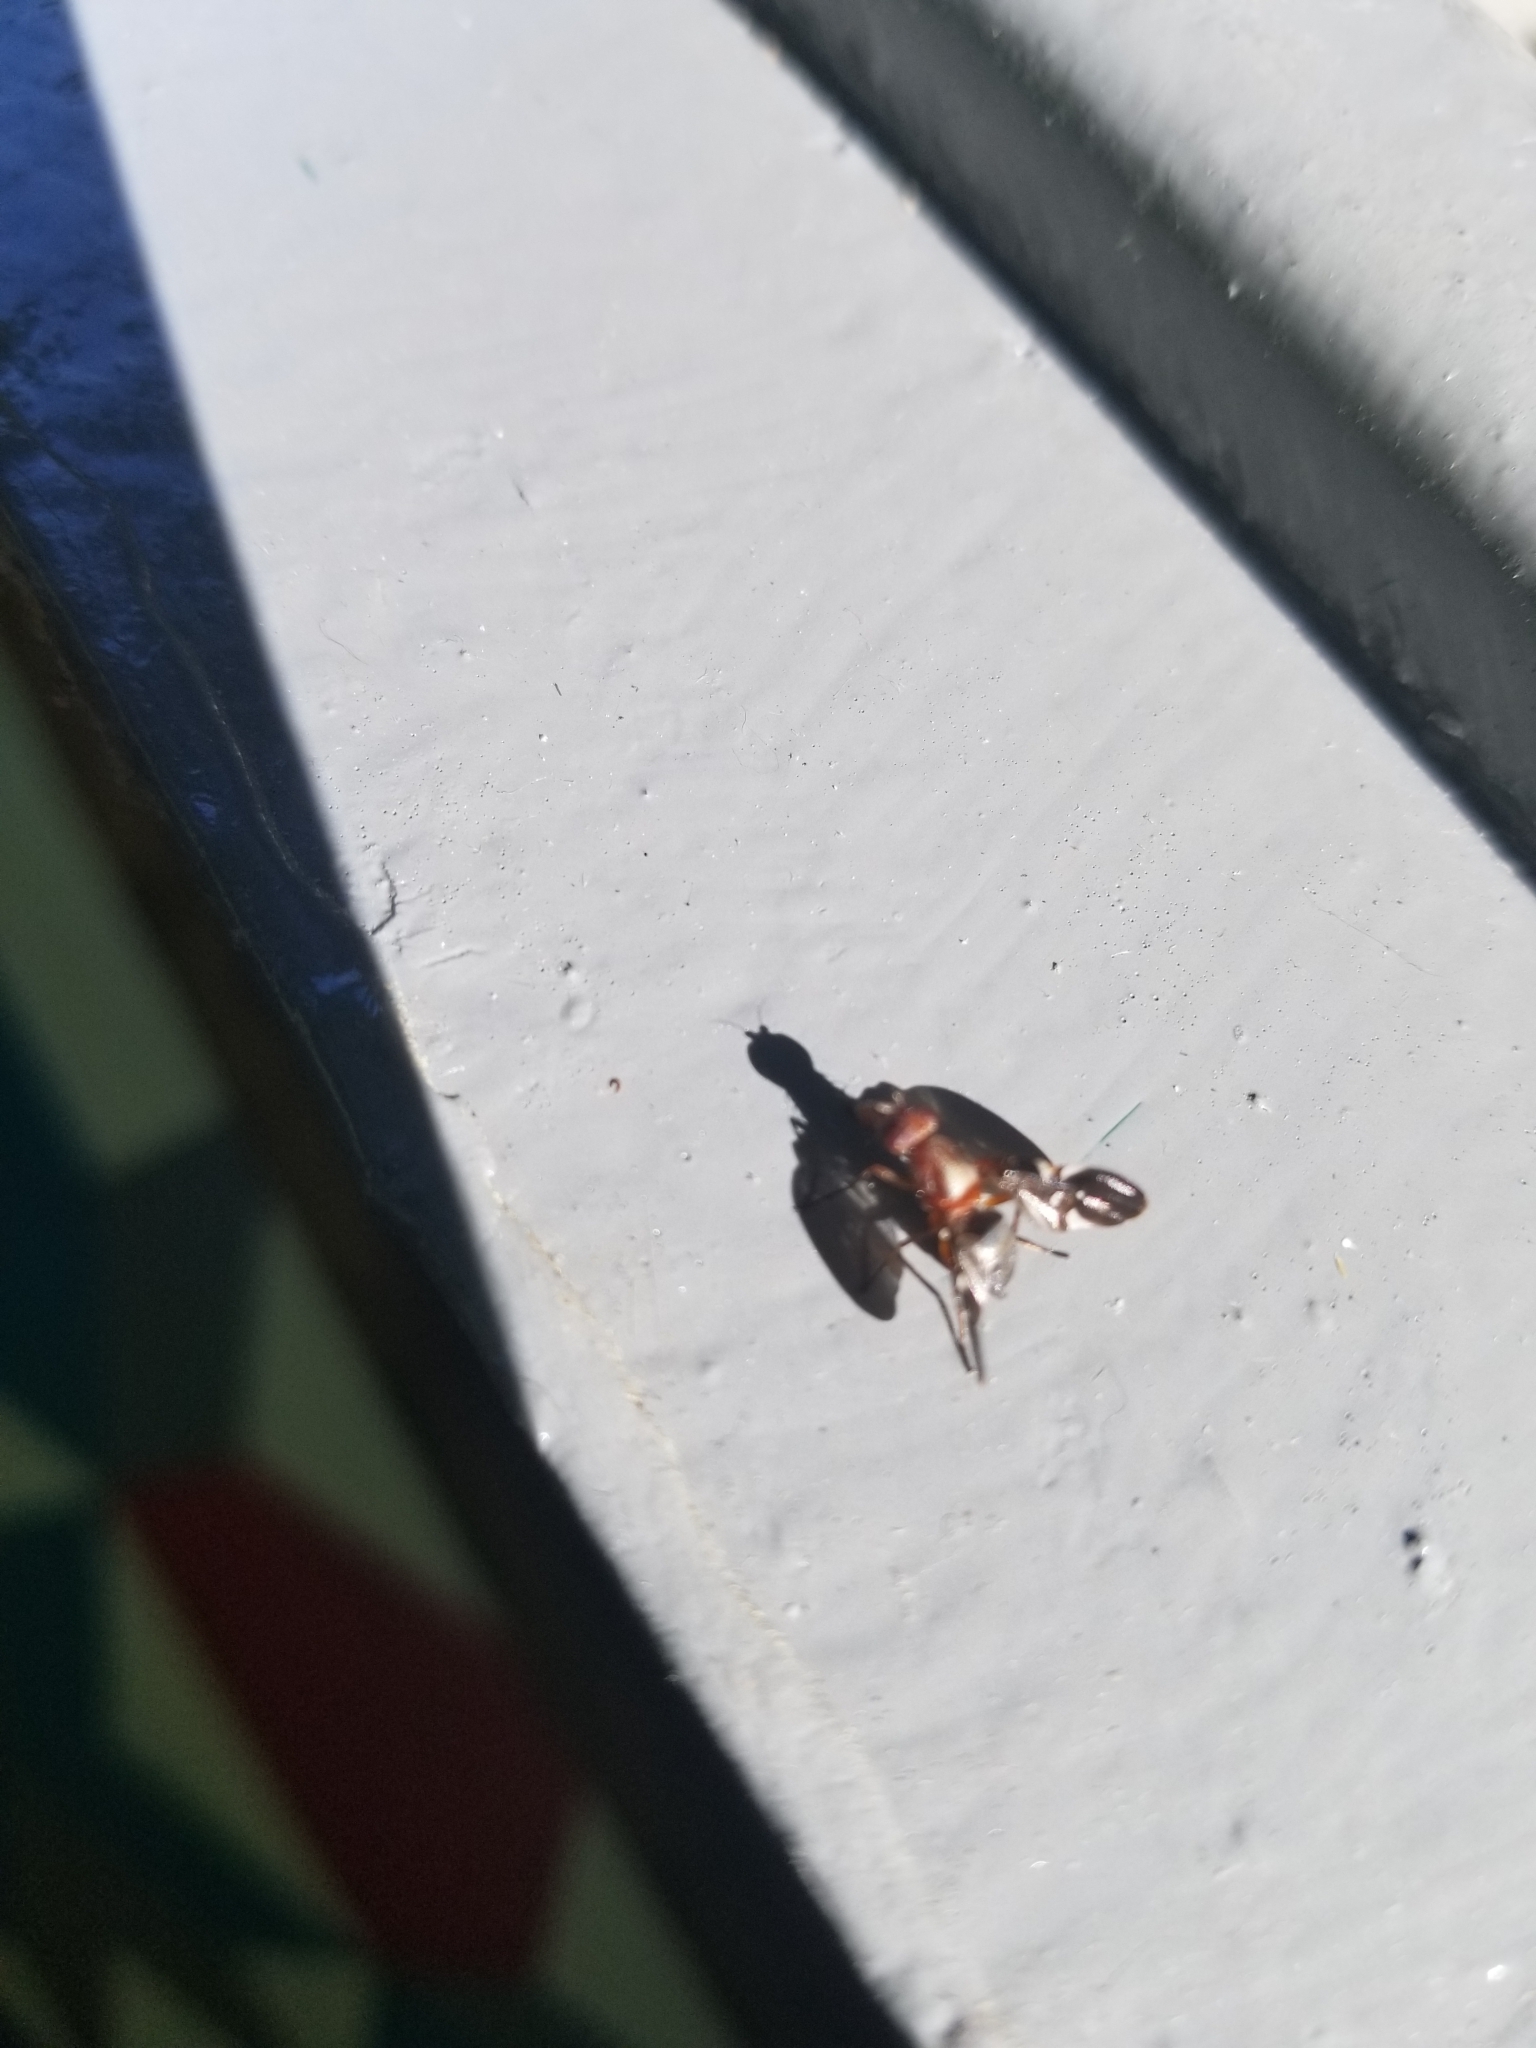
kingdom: Animalia
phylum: Arthropoda
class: Insecta
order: Diptera
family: Ulidiidae
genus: Delphinia
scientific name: Delphinia picta
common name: Common picture-winged fly
